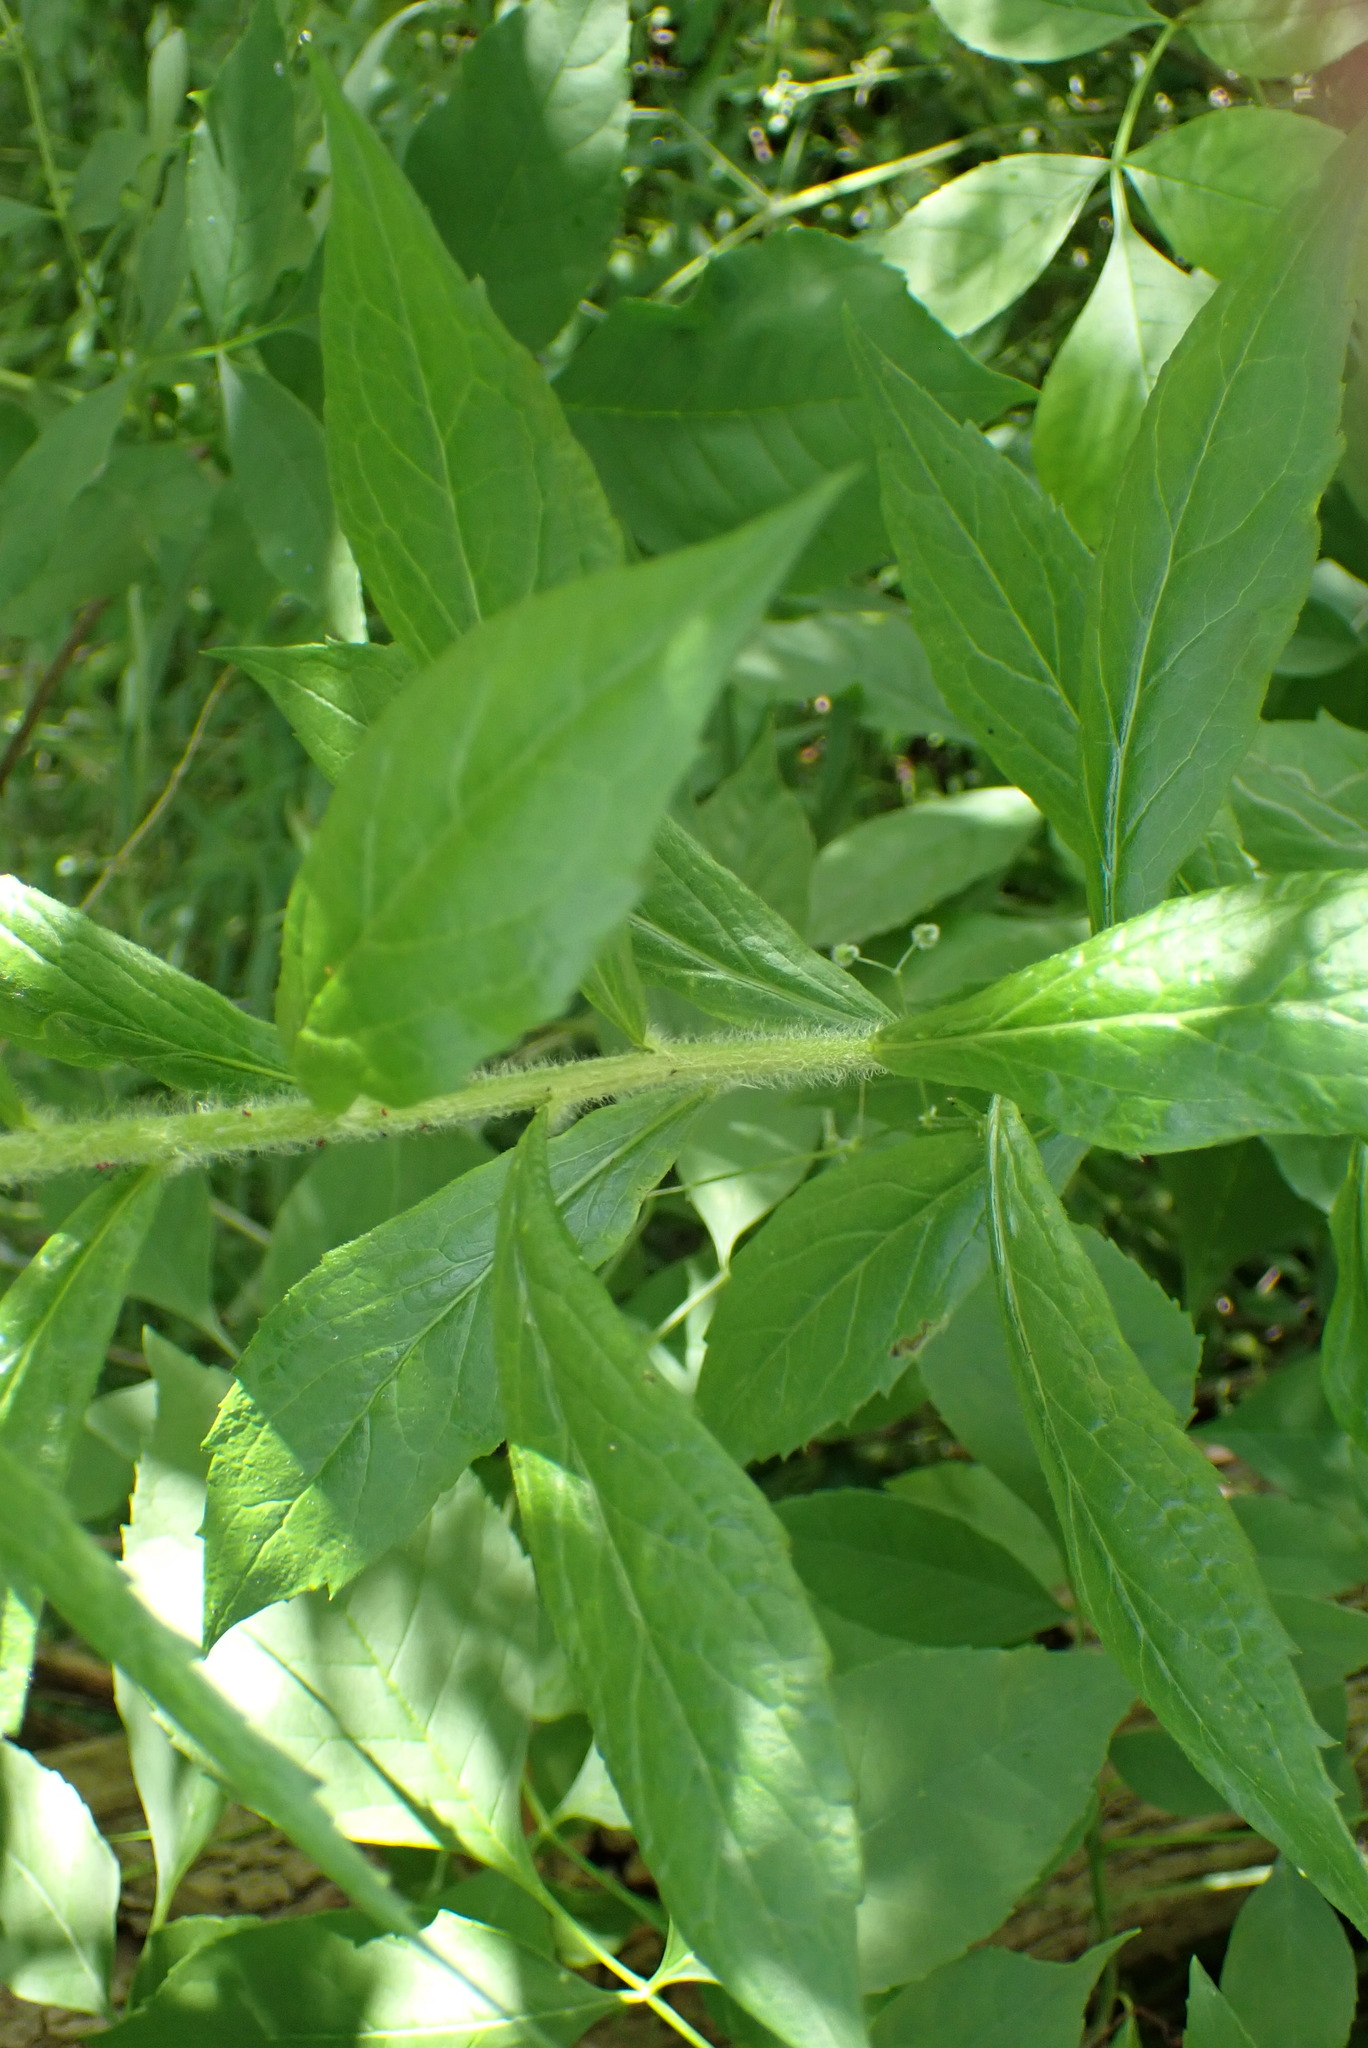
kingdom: Plantae
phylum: Tracheophyta
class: Magnoliopsida
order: Asterales
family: Asteraceae
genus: Solidago
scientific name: Solidago rugosa
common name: Rough-stemmed goldenrod
